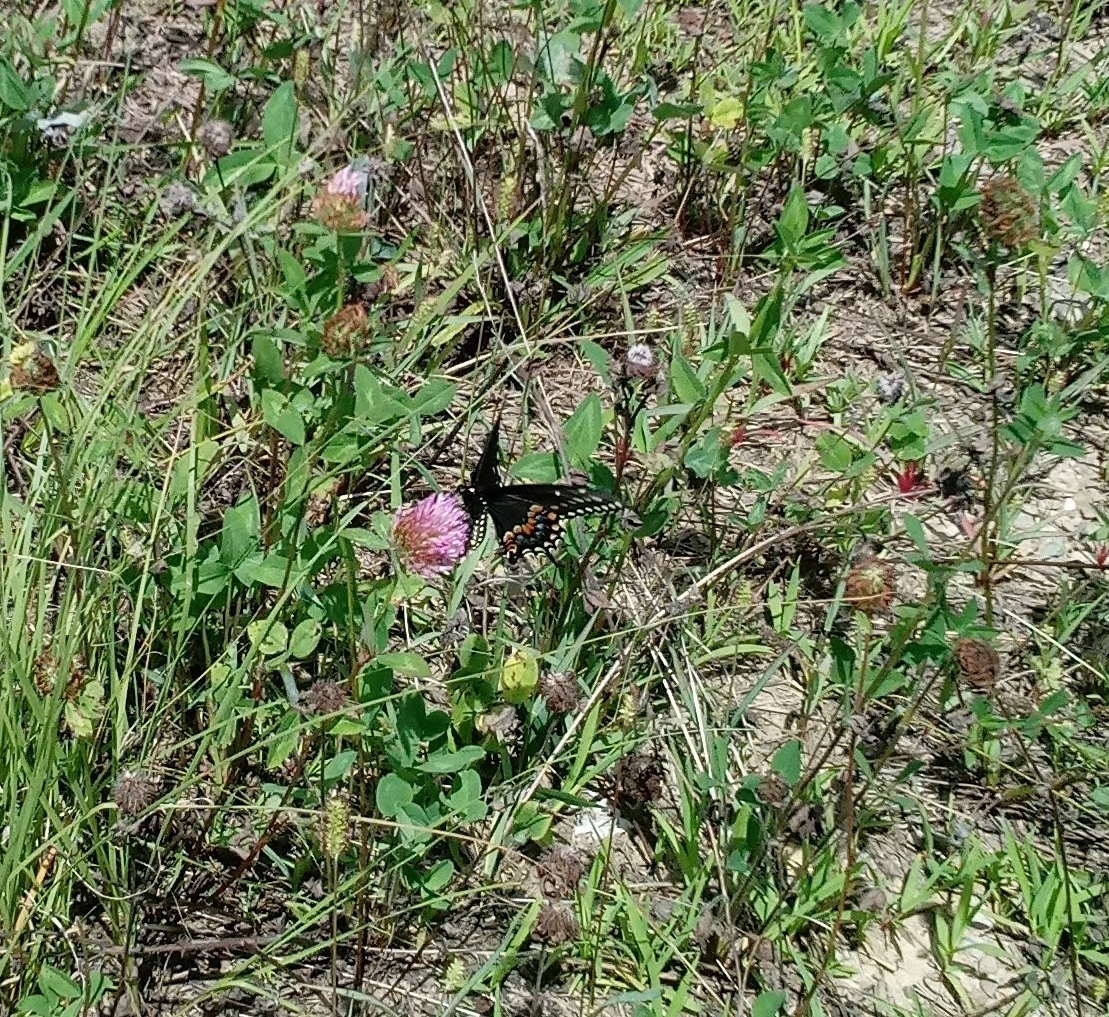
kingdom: Animalia
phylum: Arthropoda
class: Insecta
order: Lepidoptera
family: Papilionidae
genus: Papilio
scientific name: Papilio polyxenes
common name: Black swallowtail
